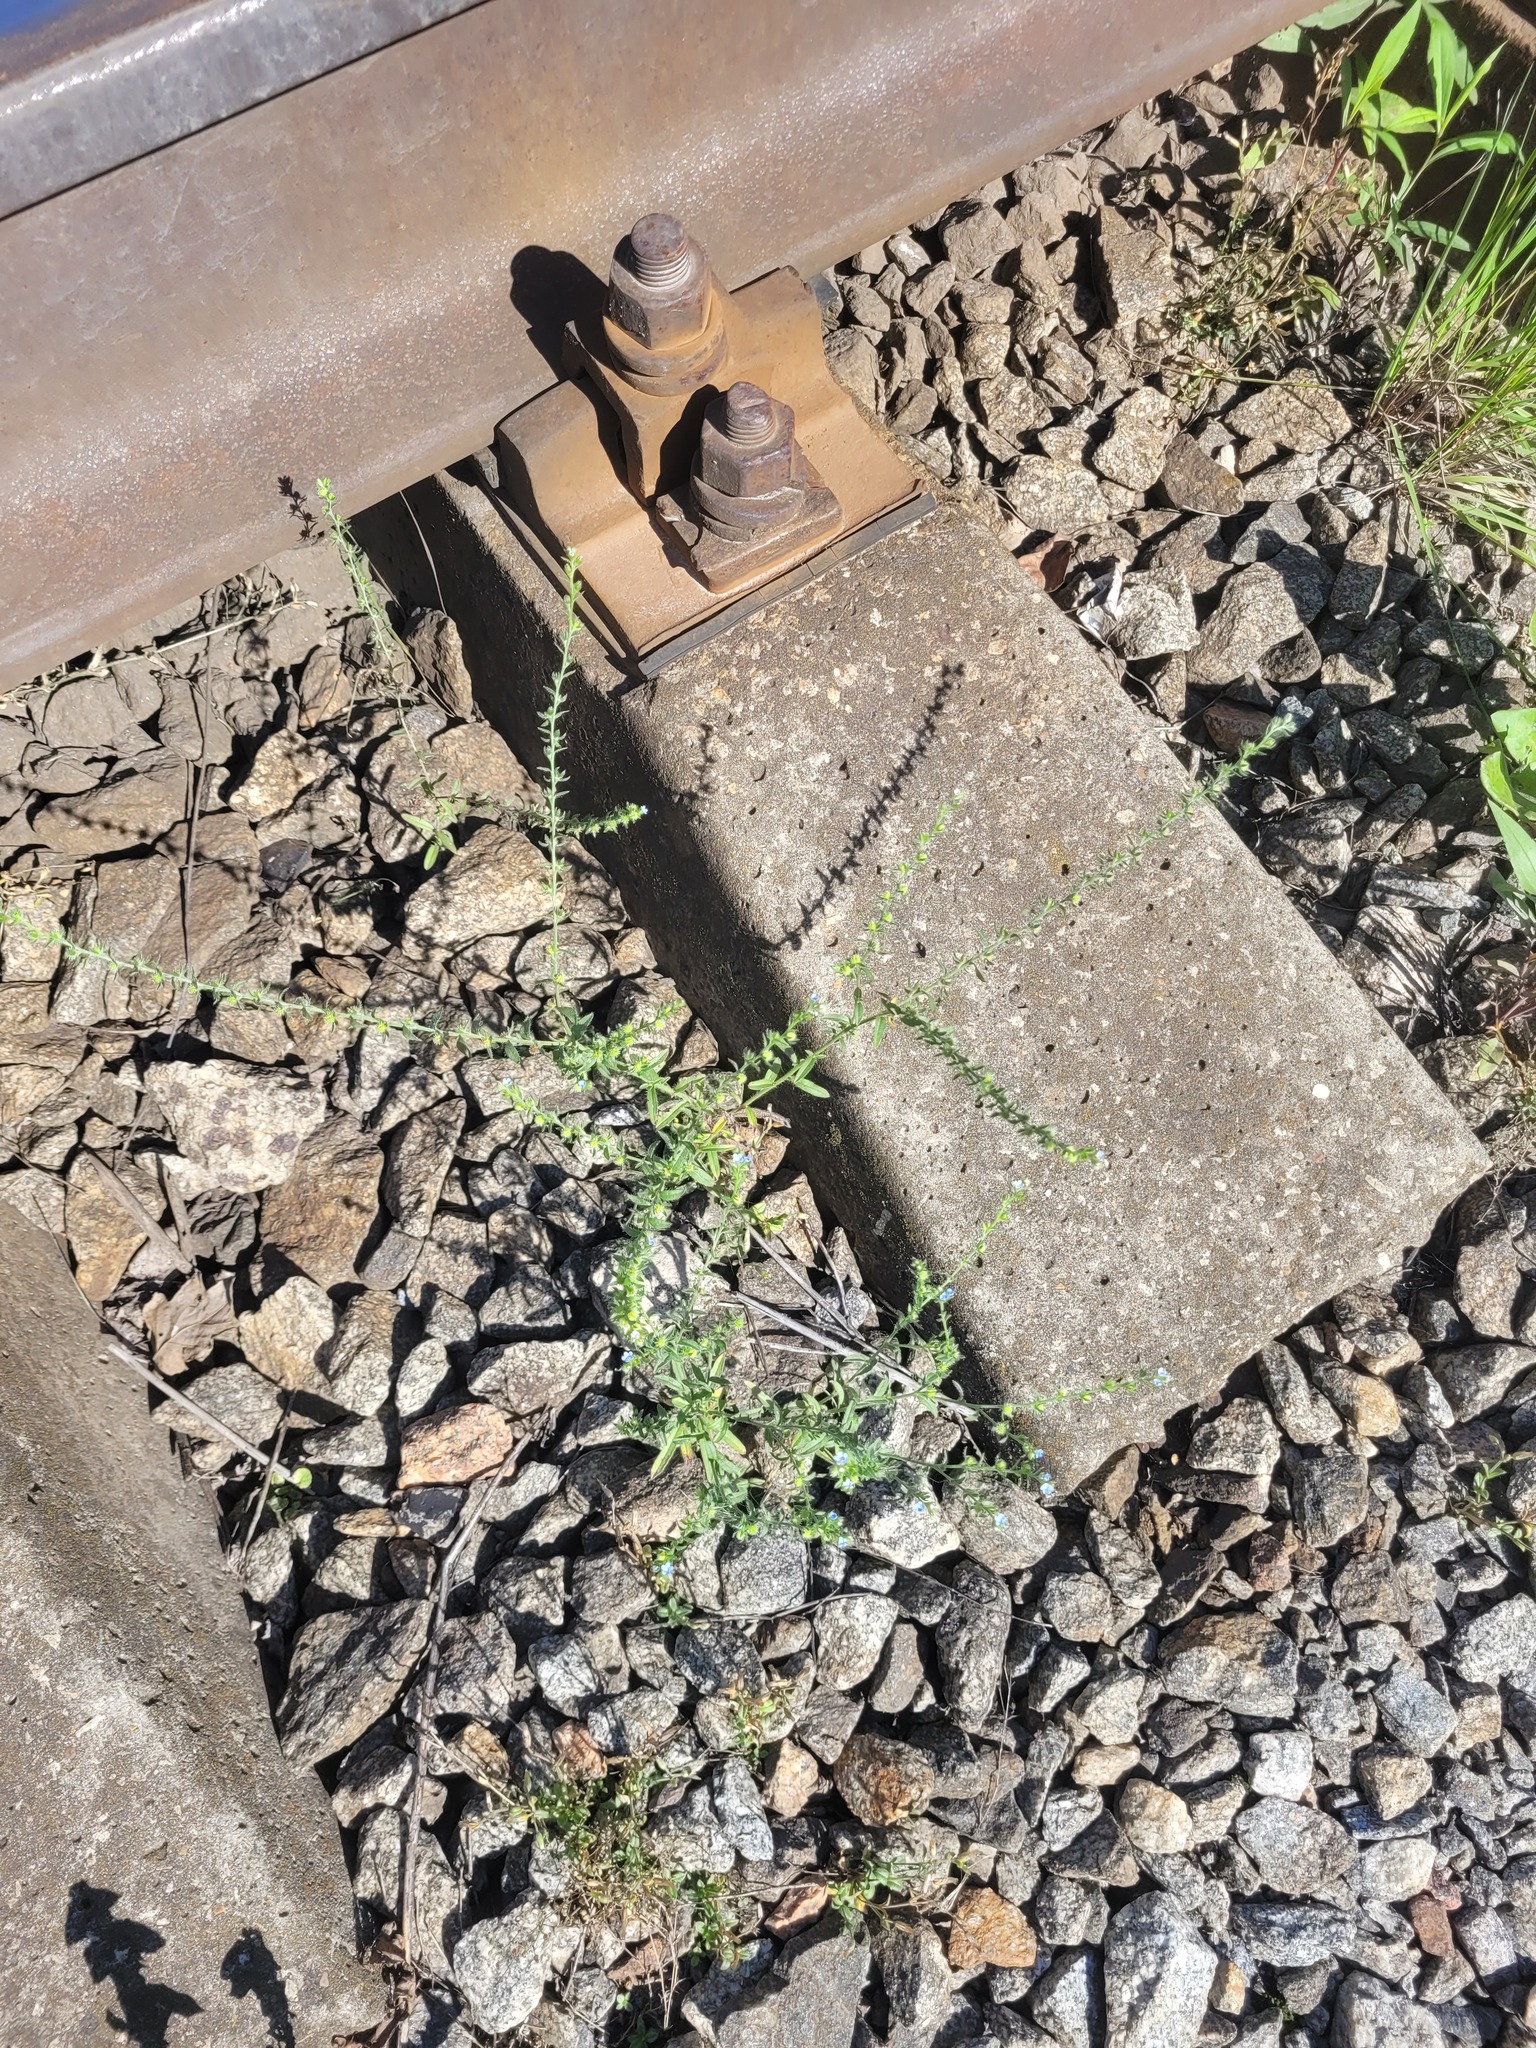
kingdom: Plantae
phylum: Tracheophyta
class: Magnoliopsida
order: Boraginales
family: Boraginaceae
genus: Lappula
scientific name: Lappula squarrosa
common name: European stickseed
